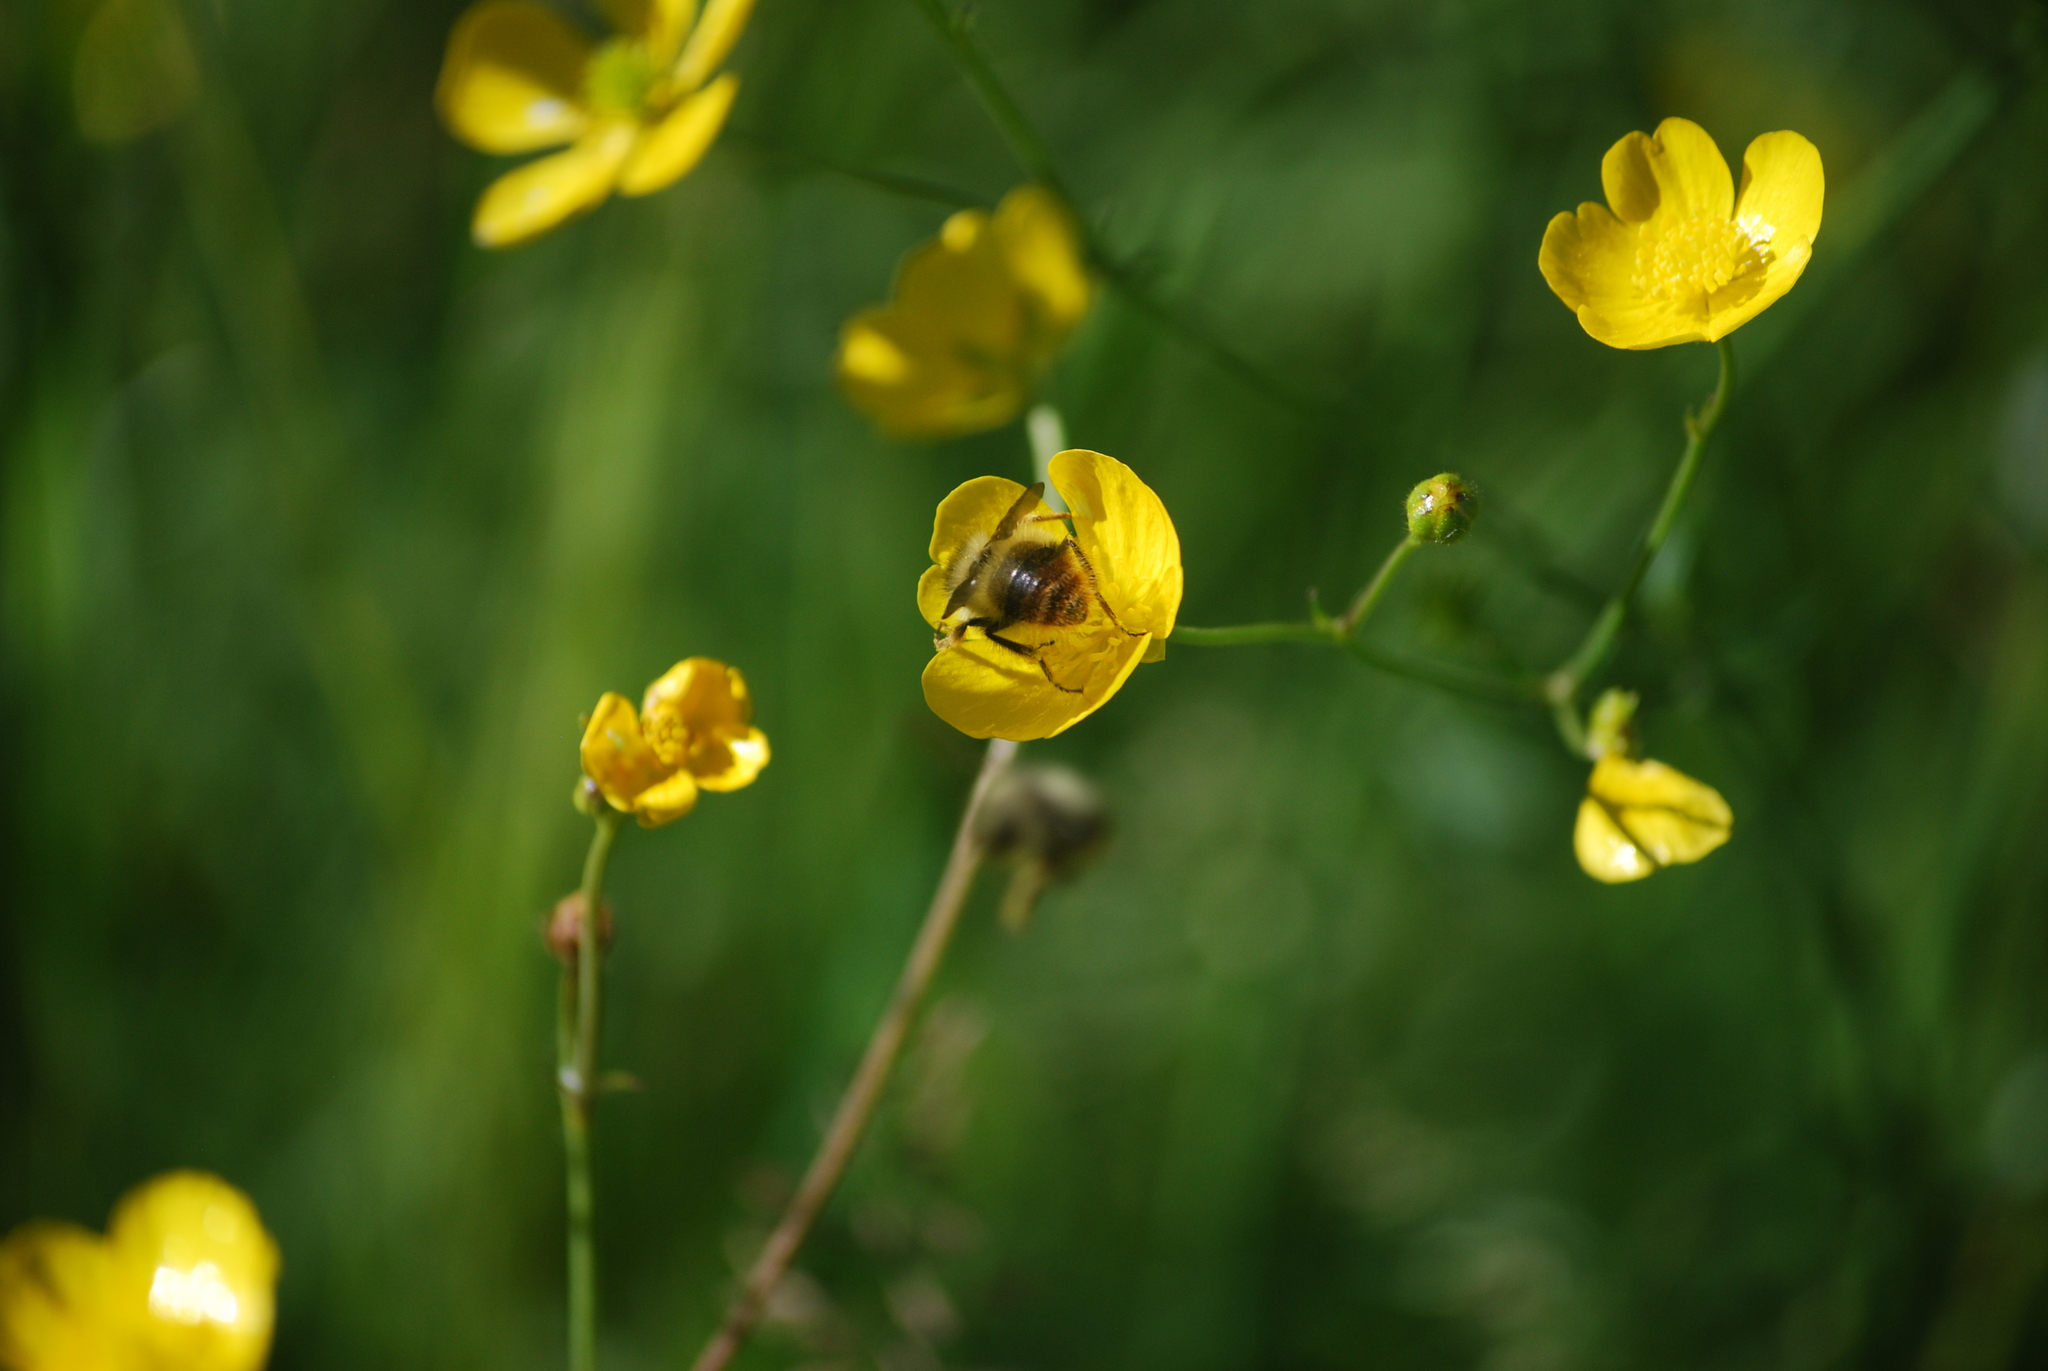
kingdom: Animalia
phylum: Arthropoda
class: Insecta
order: Hymenoptera
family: Apidae
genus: Bombus
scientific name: Bombus mixtus
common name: Fuzzy-horned bumble bee
